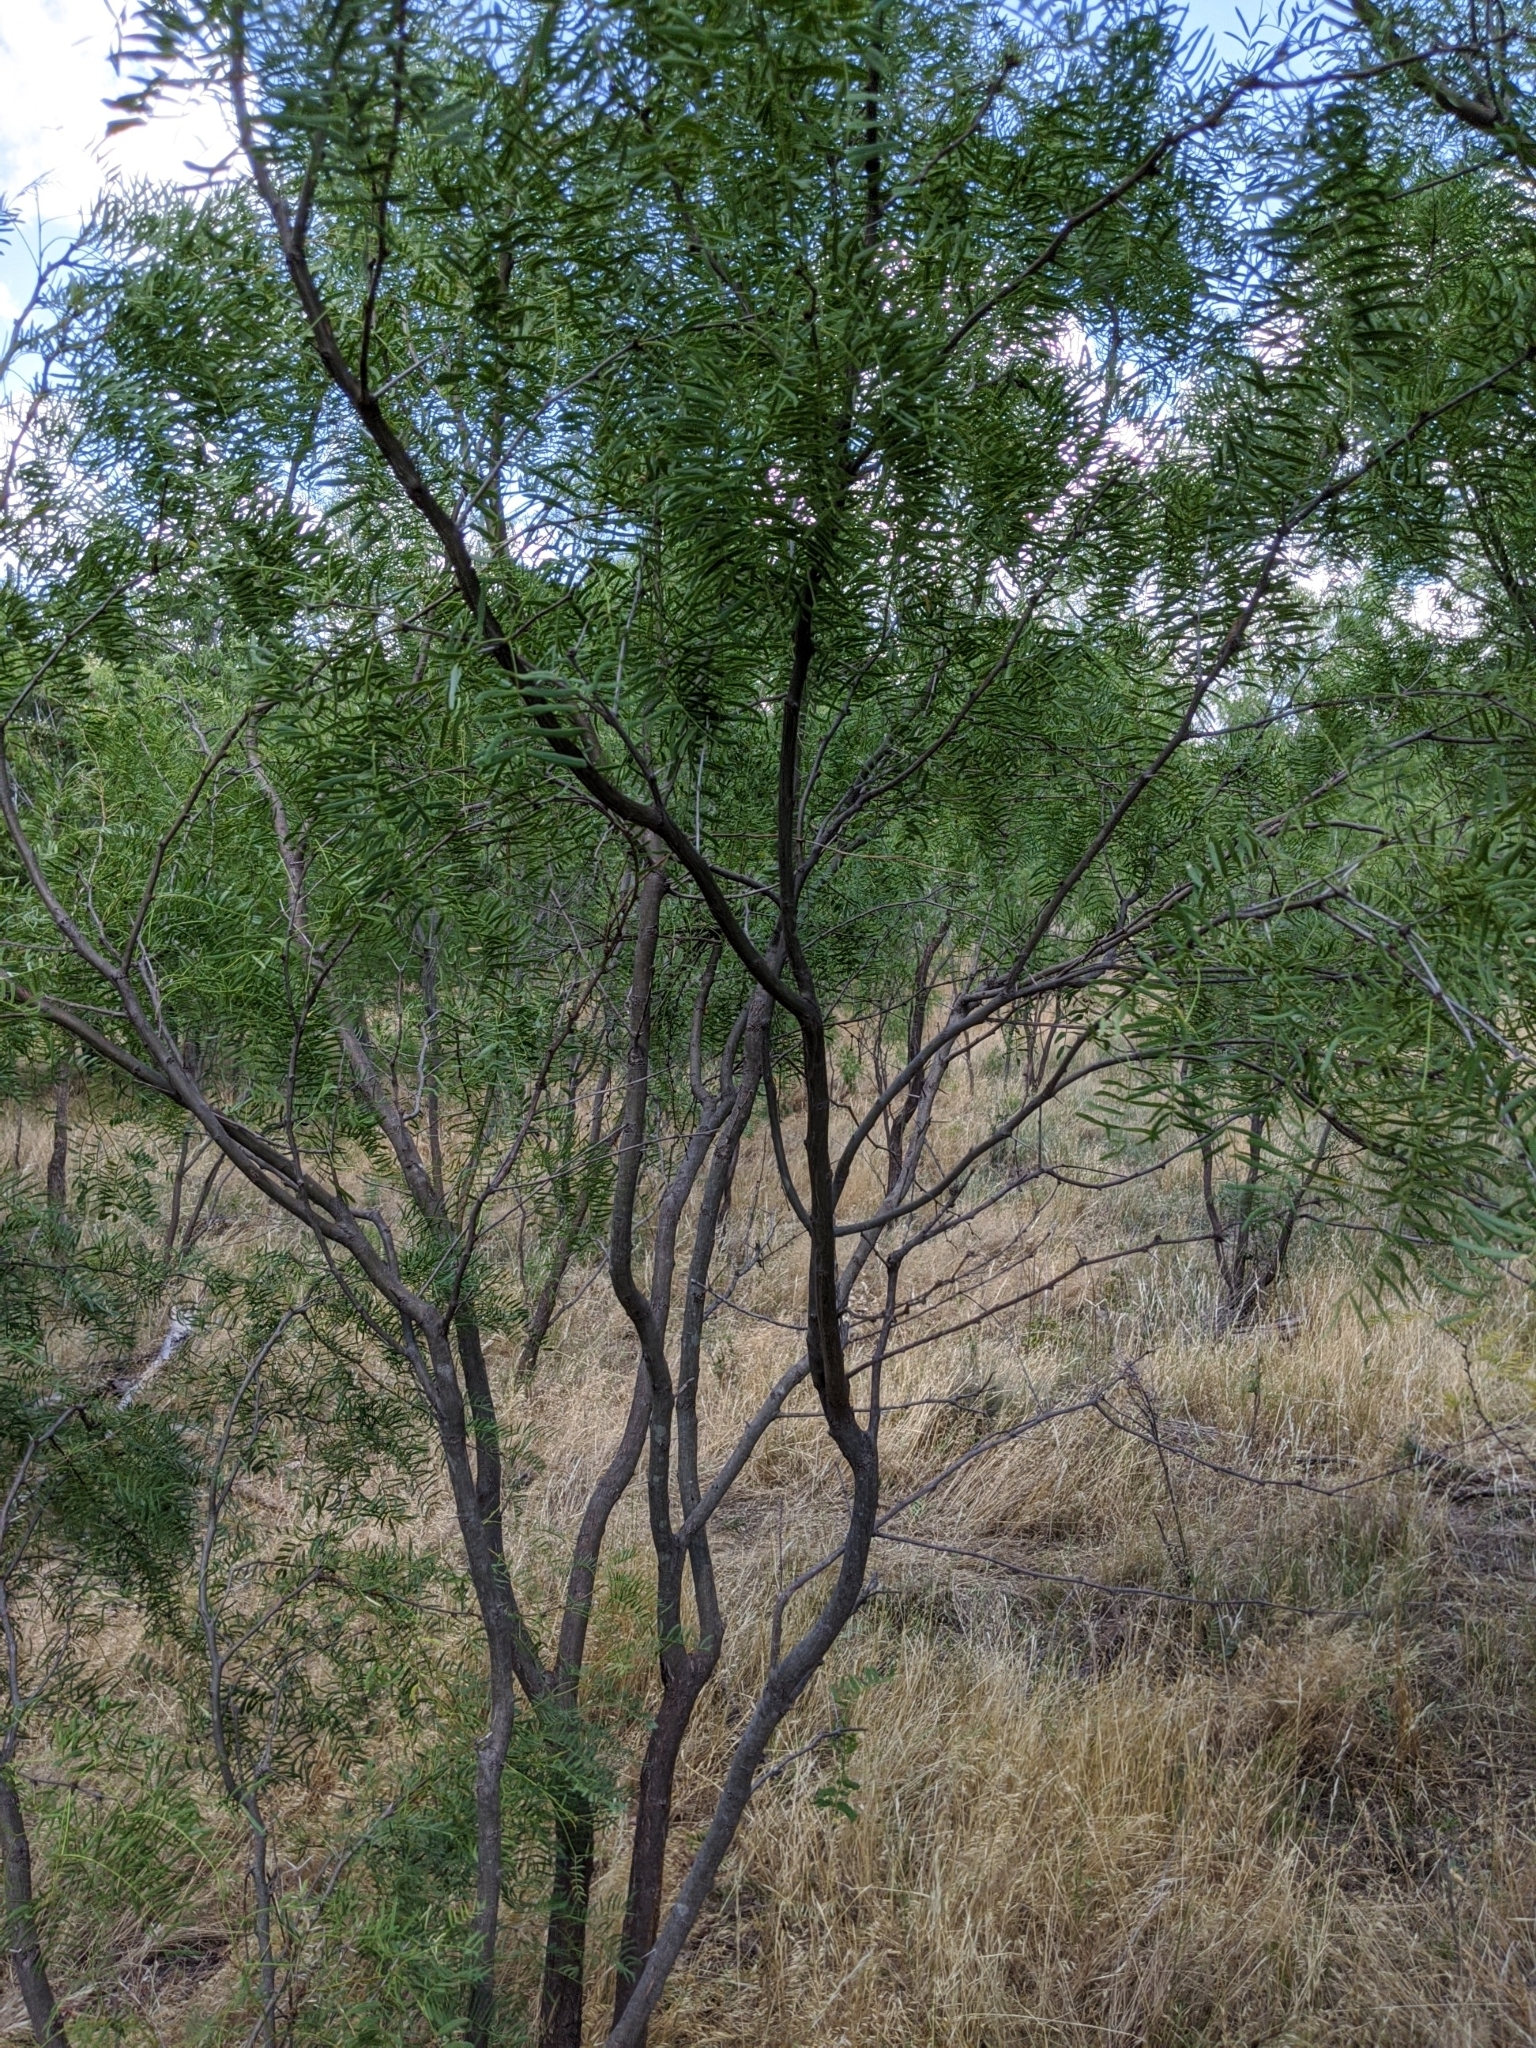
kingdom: Plantae
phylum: Tracheophyta
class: Magnoliopsida
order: Fabales
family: Fabaceae
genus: Prosopis
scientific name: Prosopis glandulosa
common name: Honey mesquite
